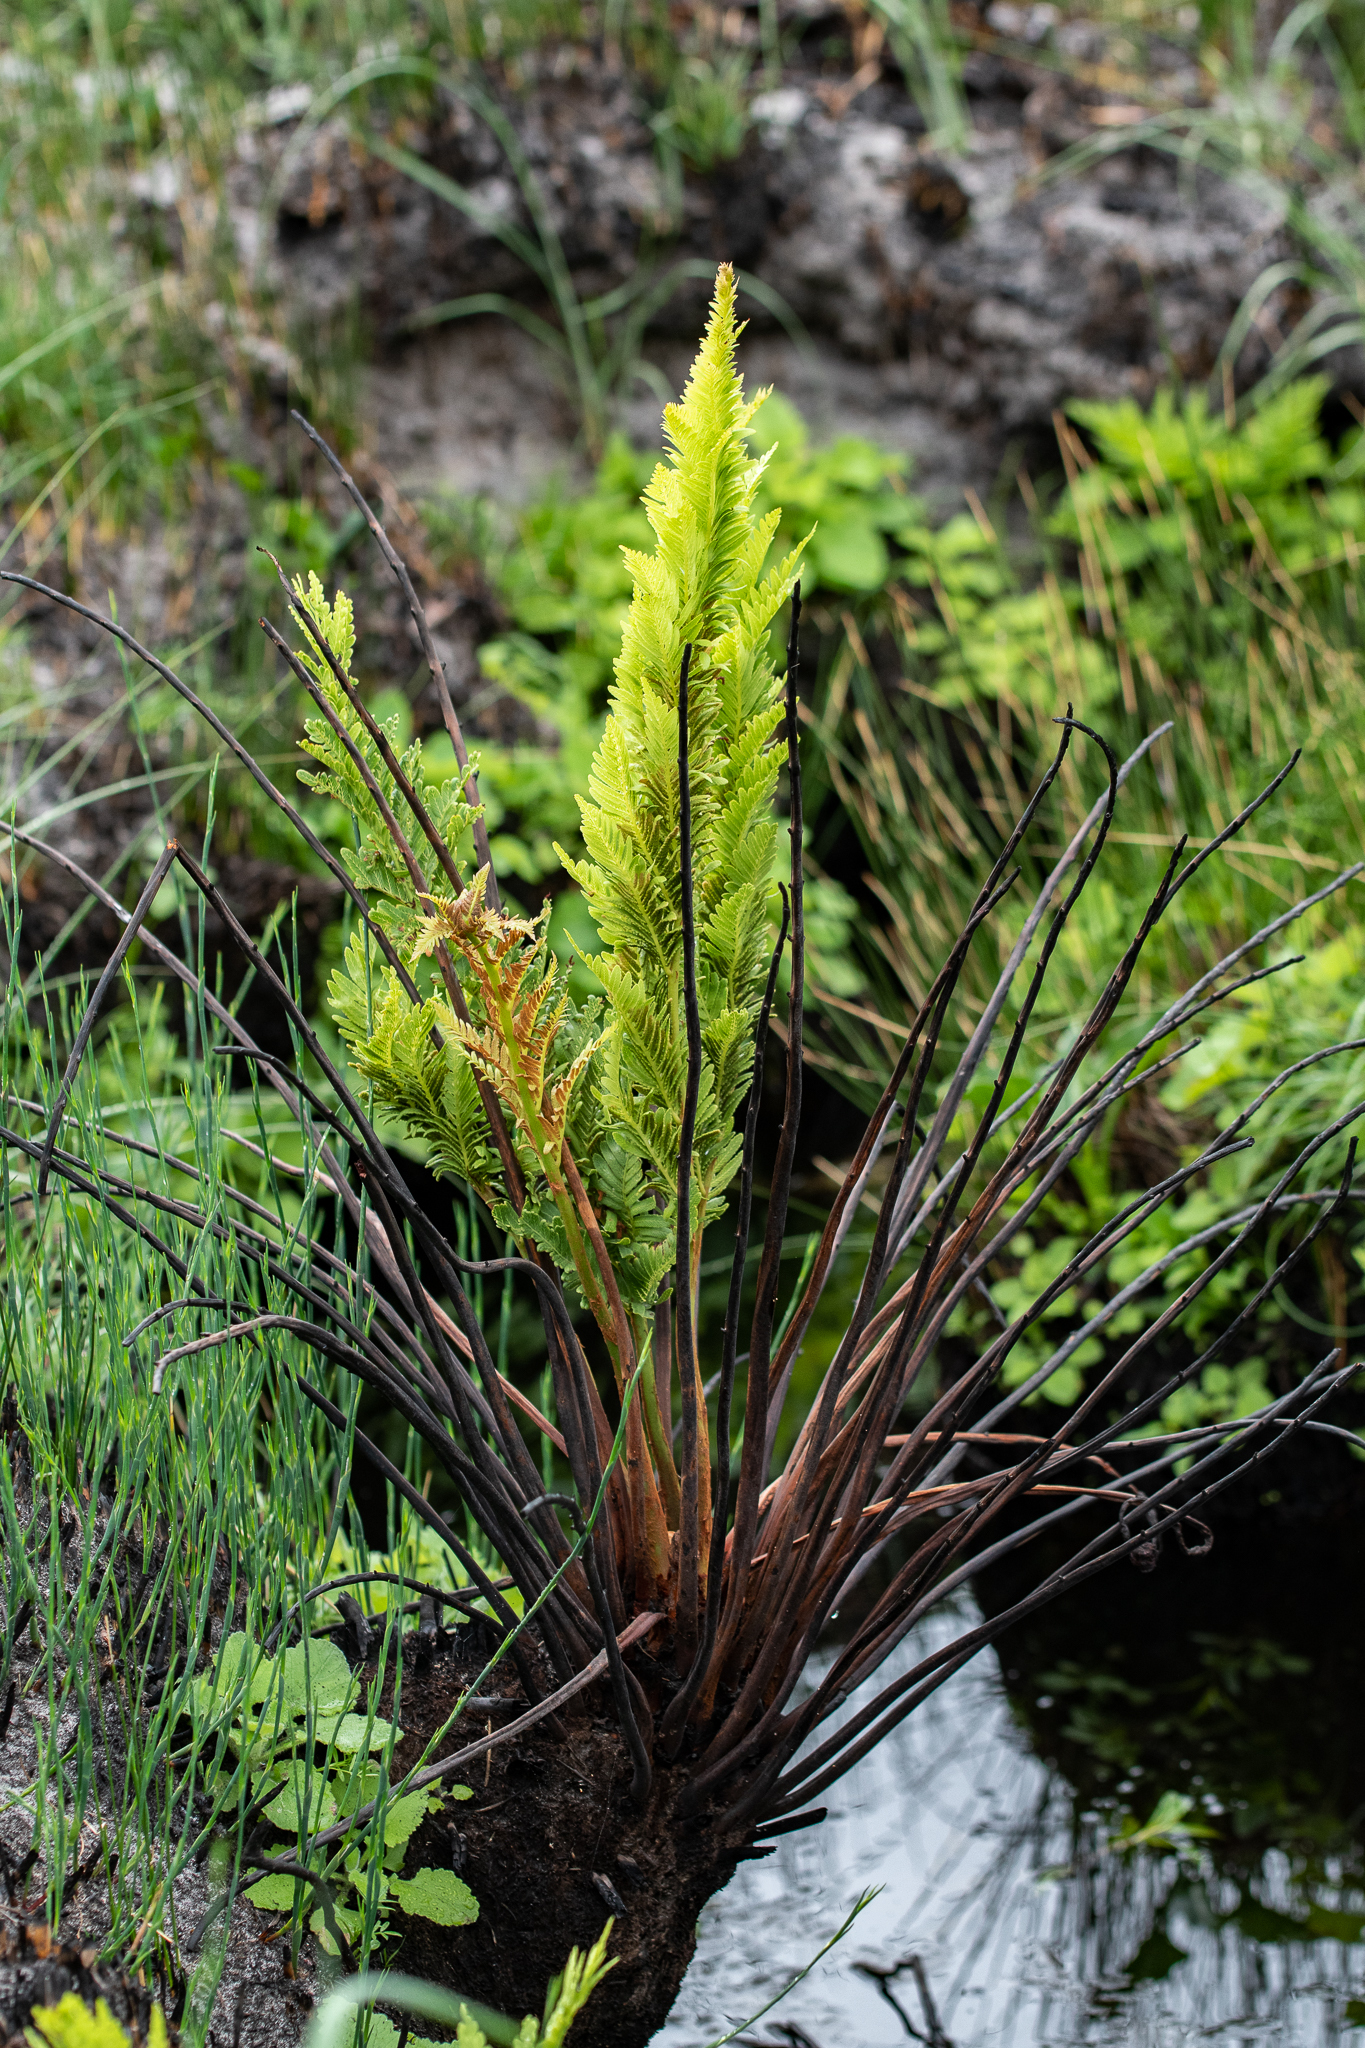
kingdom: Plantae
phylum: Tracheophyta
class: Polypodiopsida
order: Osmundales
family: Osmundaceae
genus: Todea
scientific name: Todea barbara
